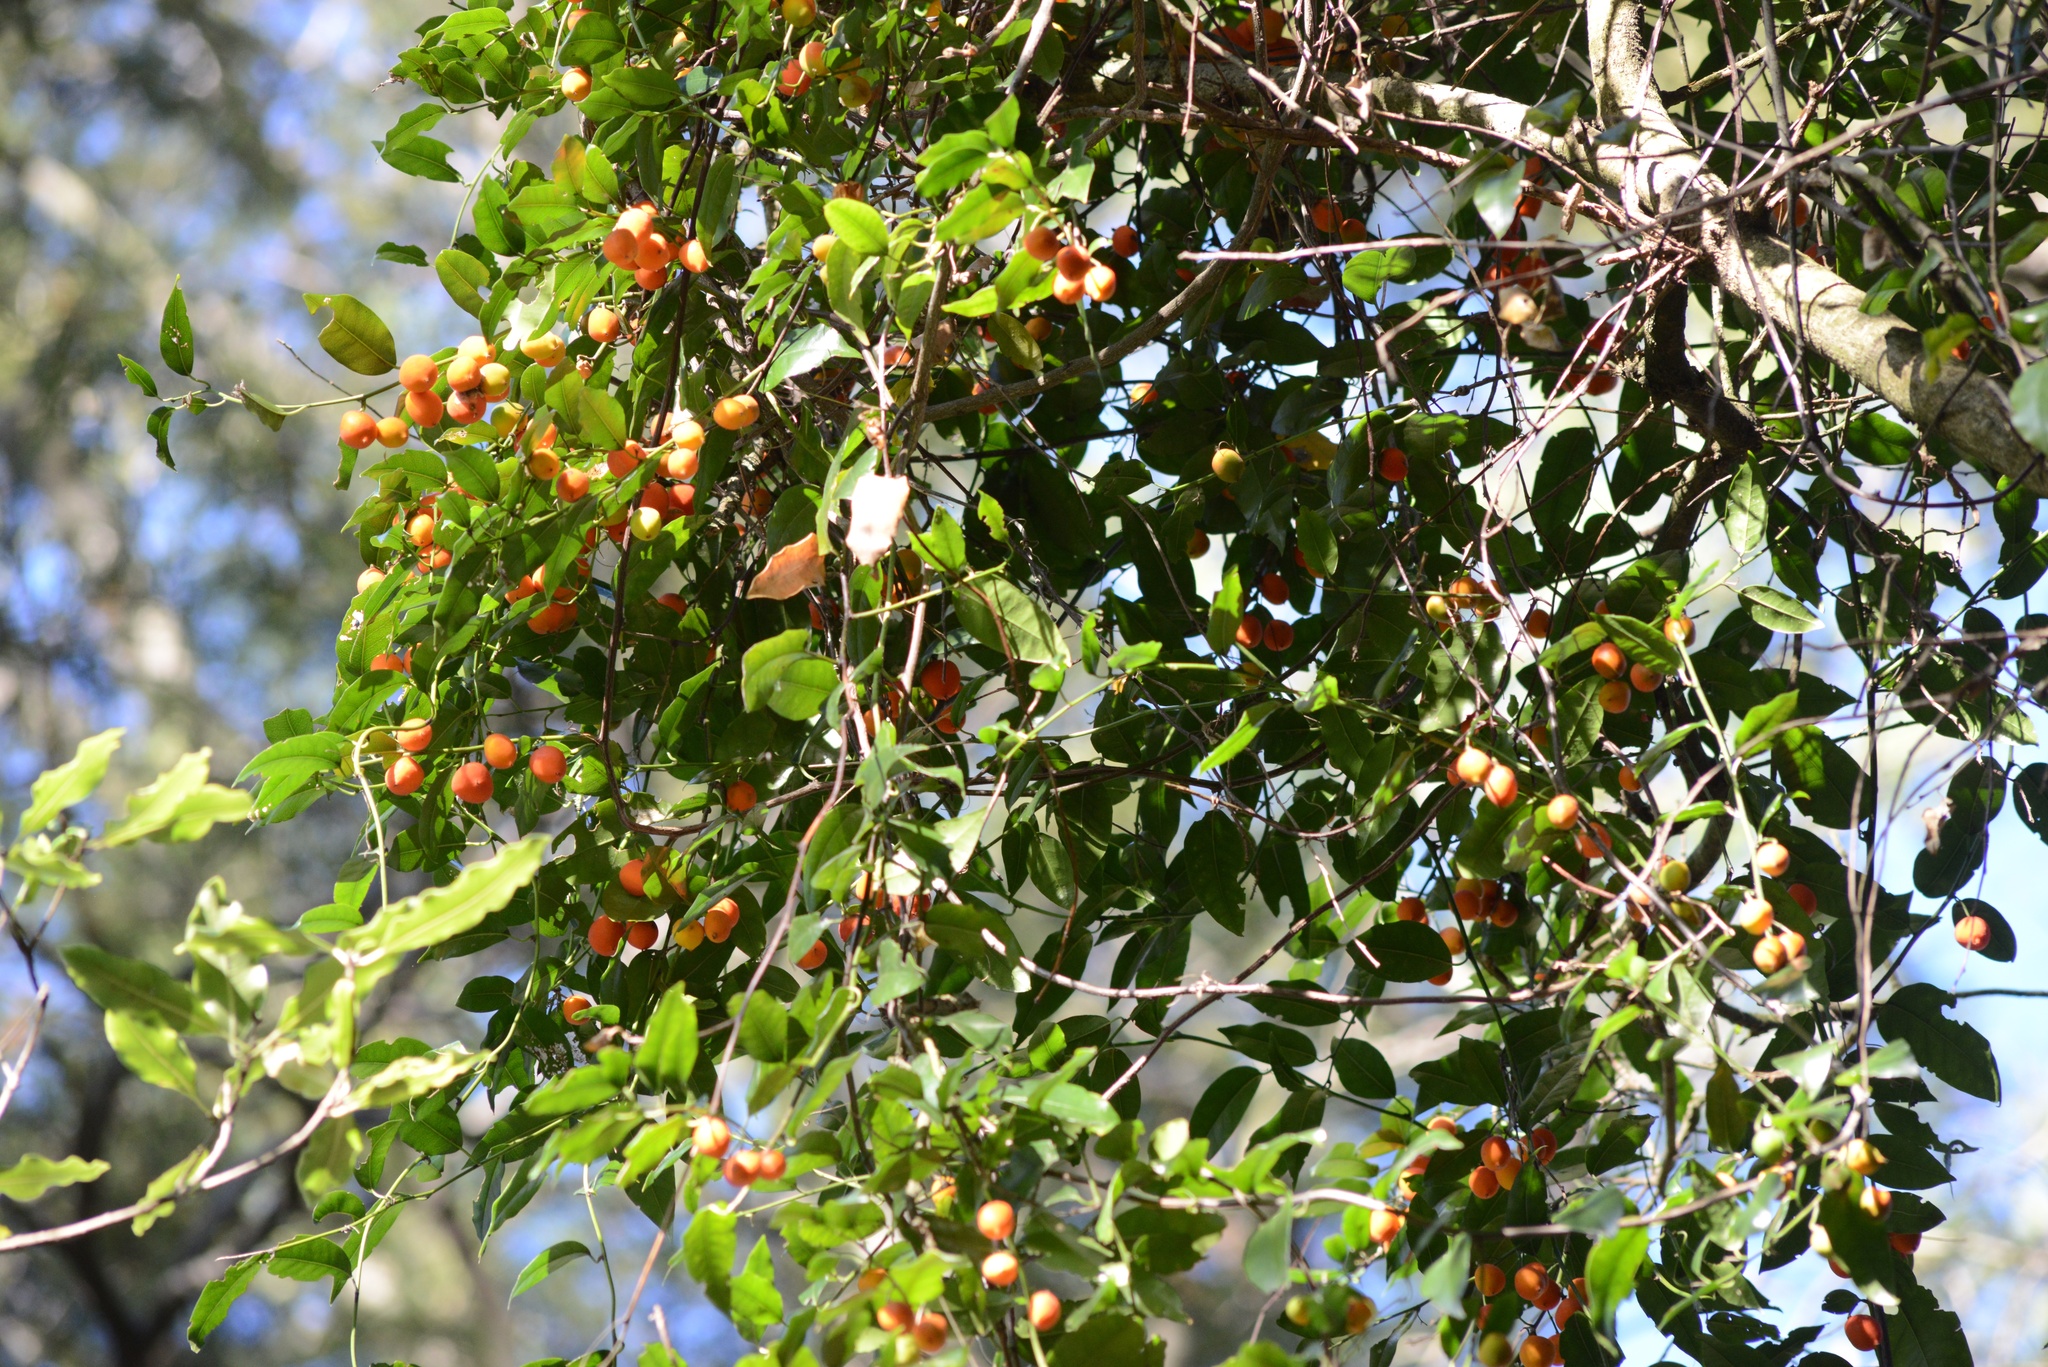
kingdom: Plantae
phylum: Tracheophyta
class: Magnoliopsida
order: Malpighiales
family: Passifloraceae
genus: Passiflora
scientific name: Passiflora tetrandra
